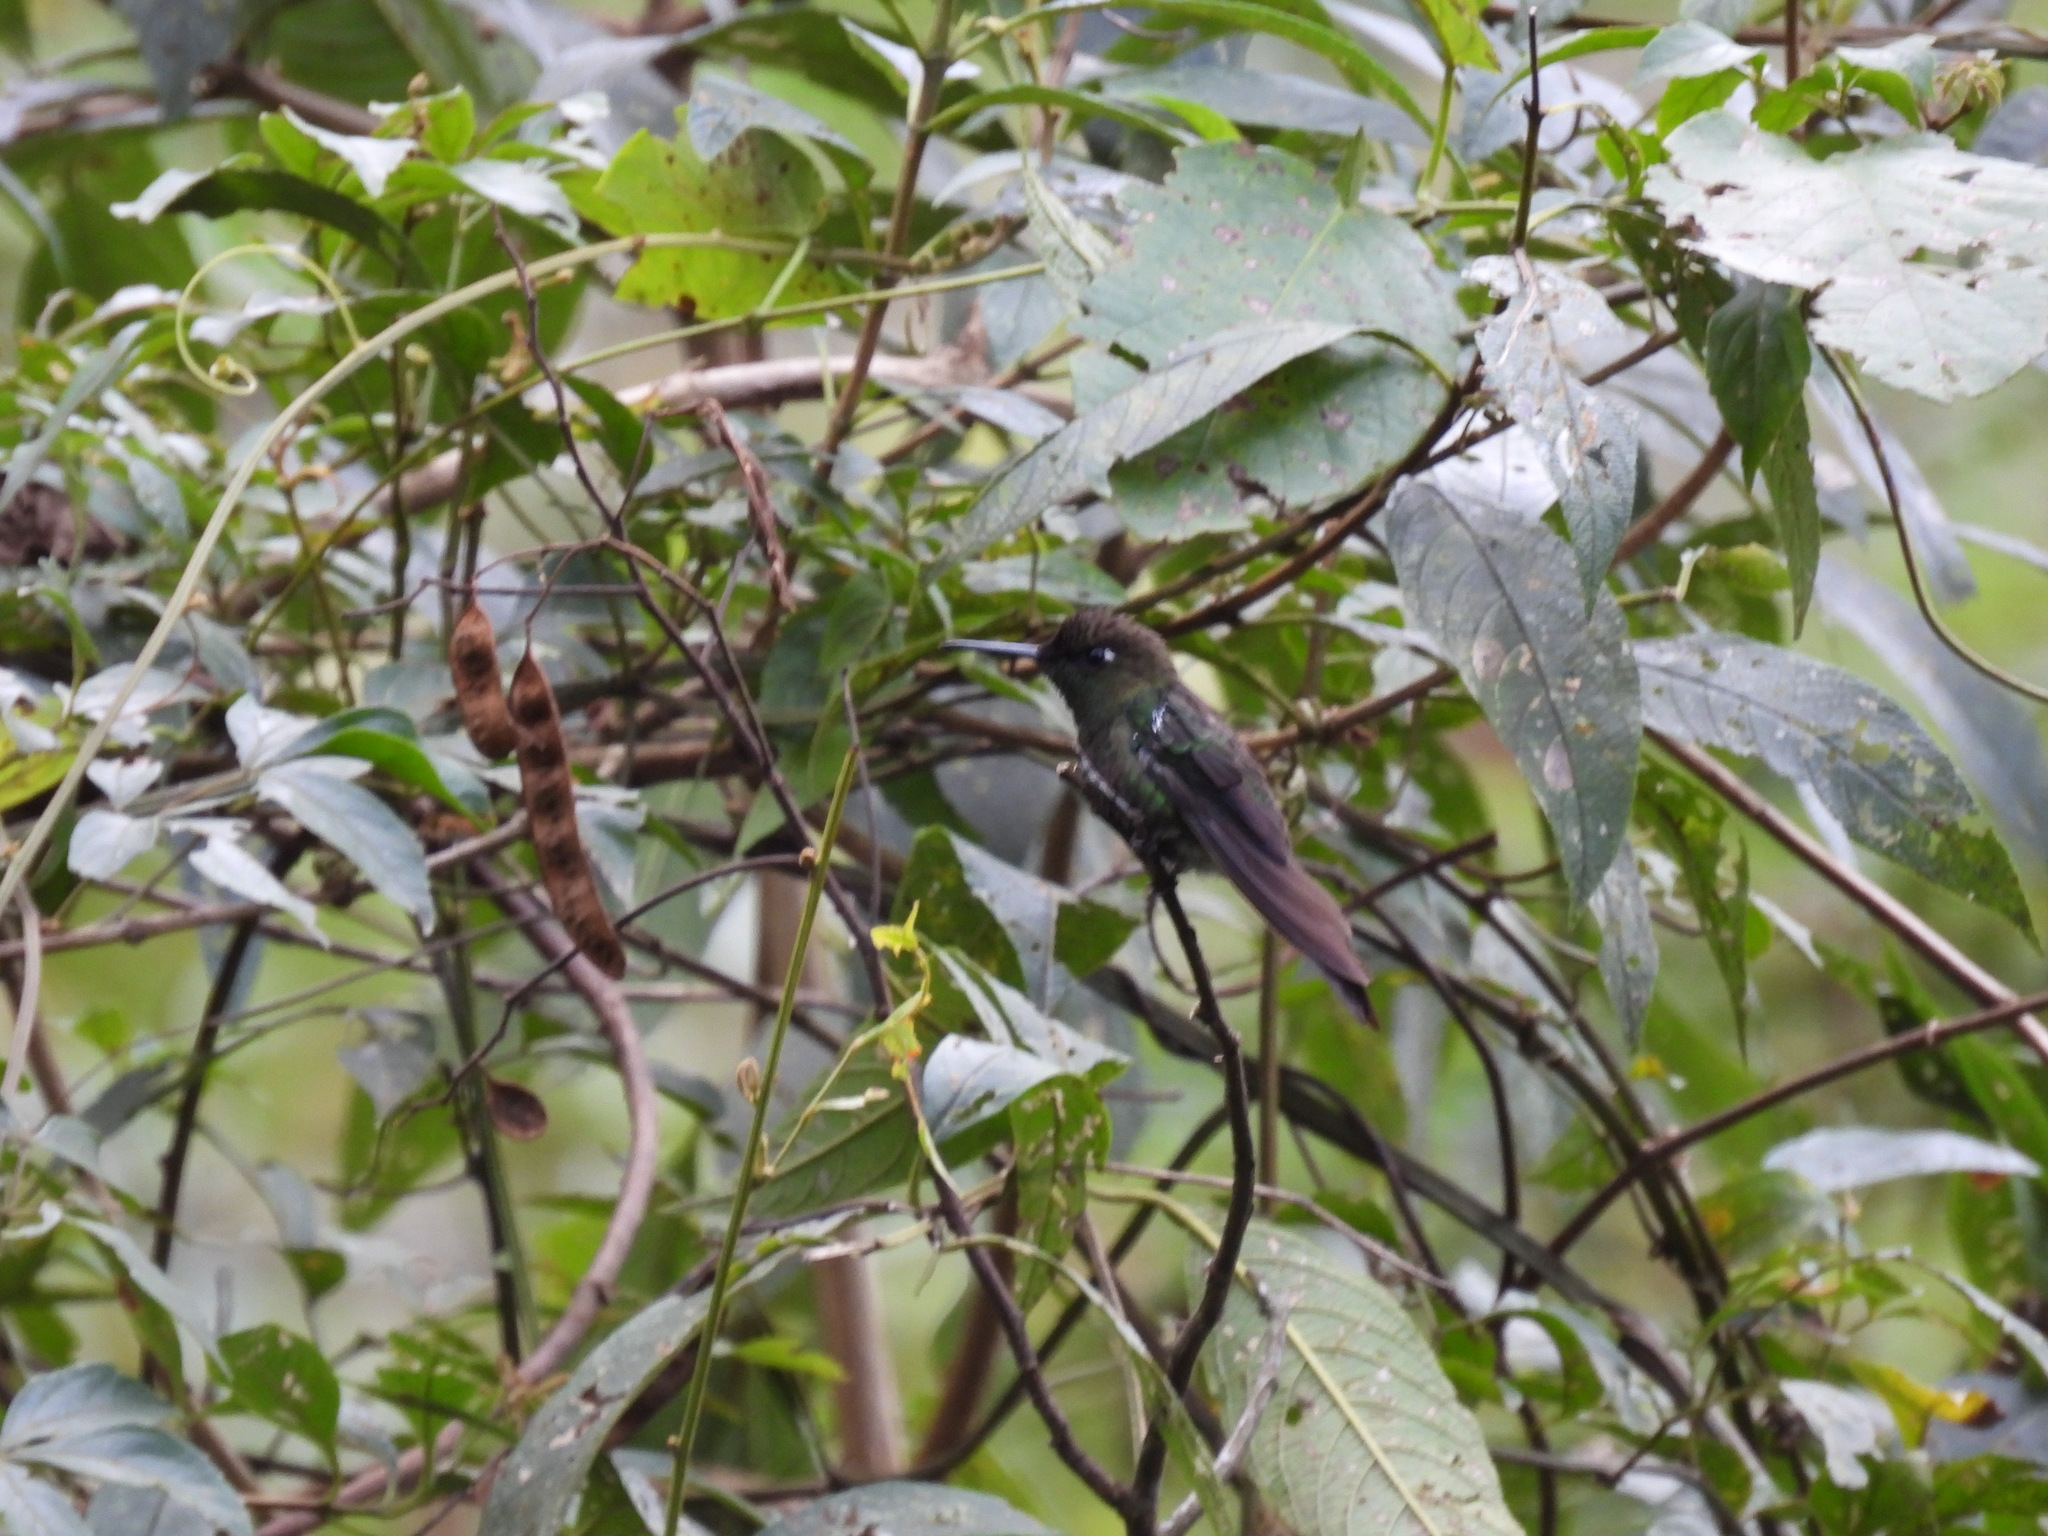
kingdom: Animalia
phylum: Chordata
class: Aves
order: Apodiformes
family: Trochilidae
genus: Metallura
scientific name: Metallura tyrianthina
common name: Tyrian metaltail
